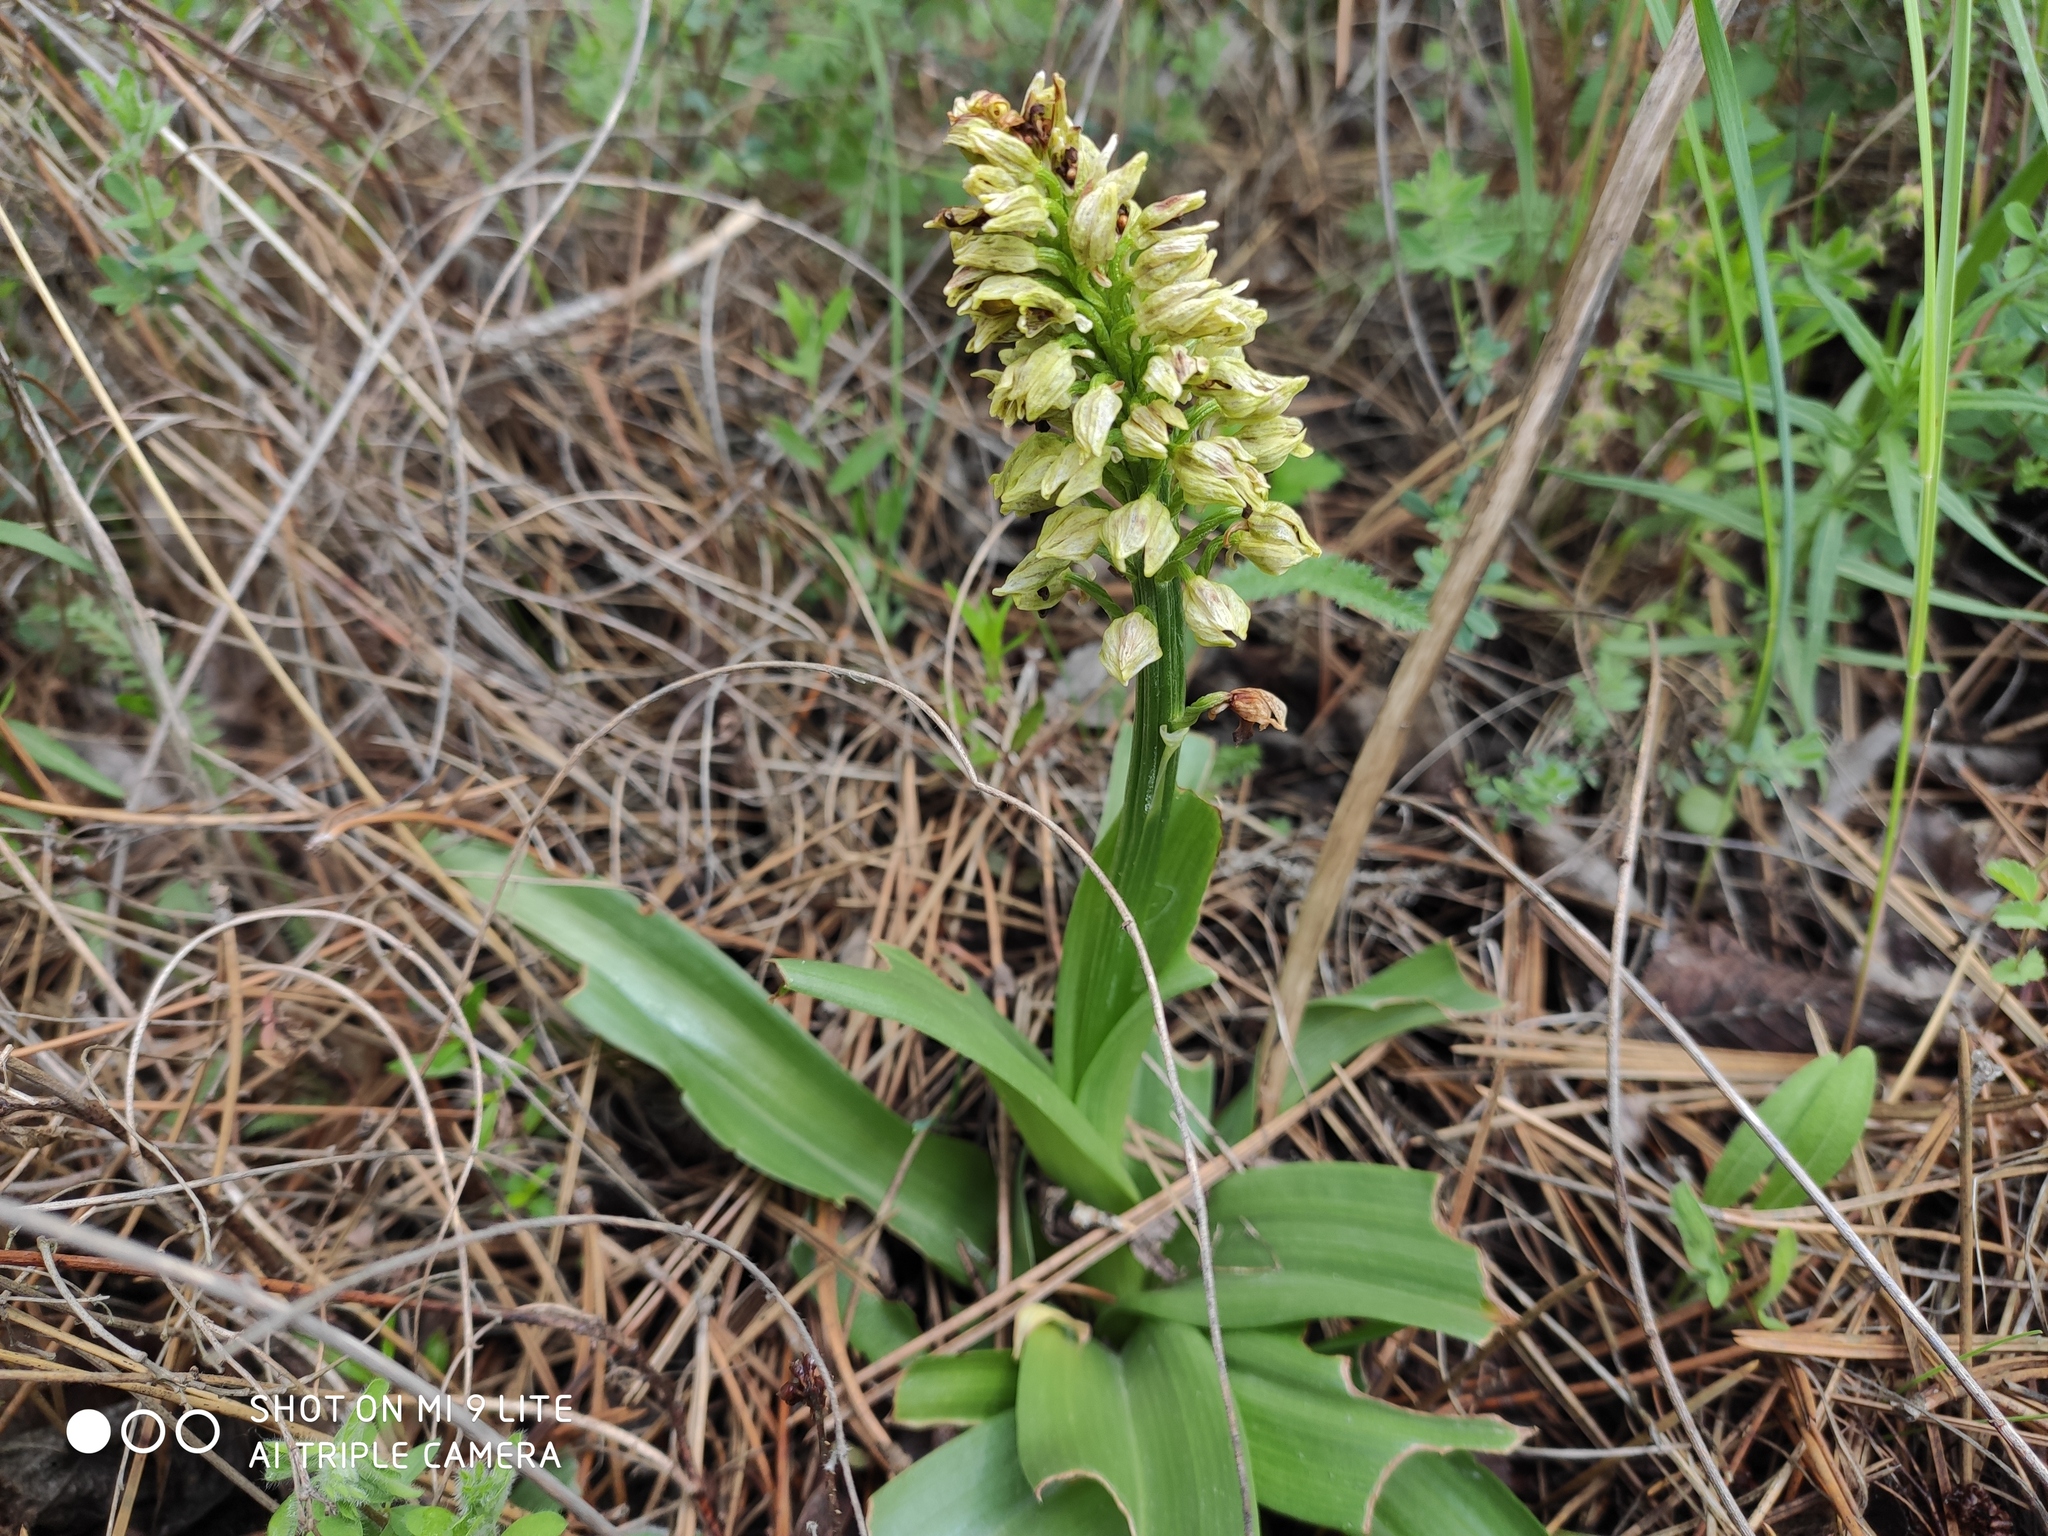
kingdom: Plantae
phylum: Tracheophyta
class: Liliopsida
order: Asparagales
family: Orchidaceae
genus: Orchis
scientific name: Orchis punctulata
